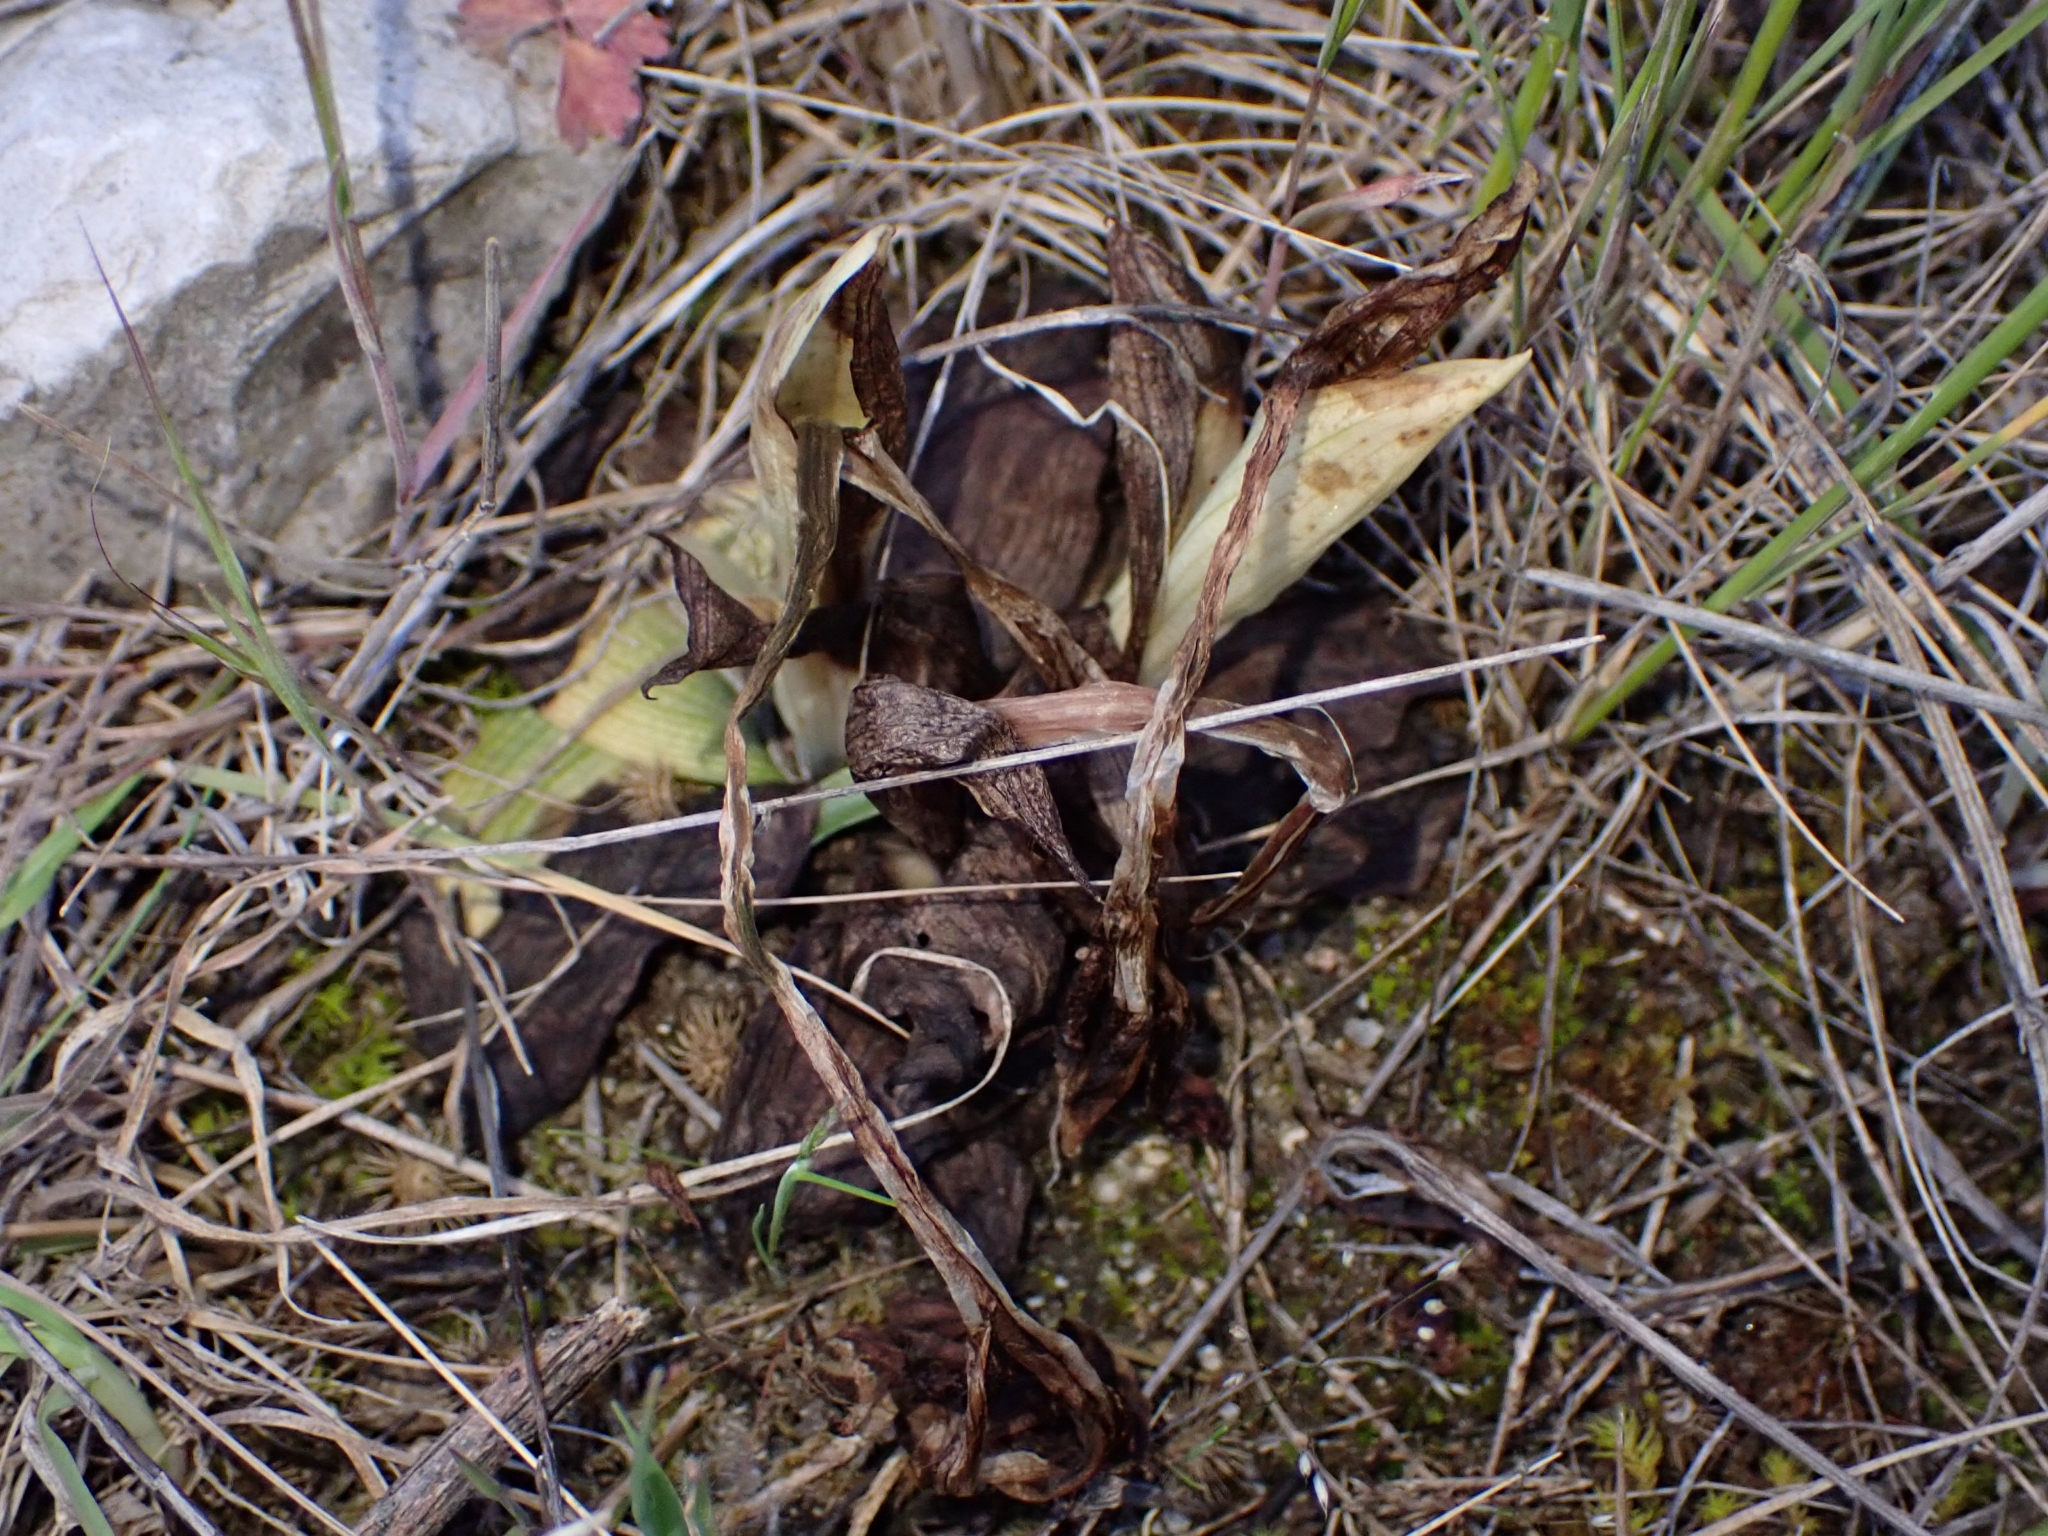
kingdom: Plantae
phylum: Tracheophyta
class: Liliopsida
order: Asparagales
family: Orchidaceae
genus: Ophrys
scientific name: Ophrys tenthredinifera
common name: Sawfly orchid
